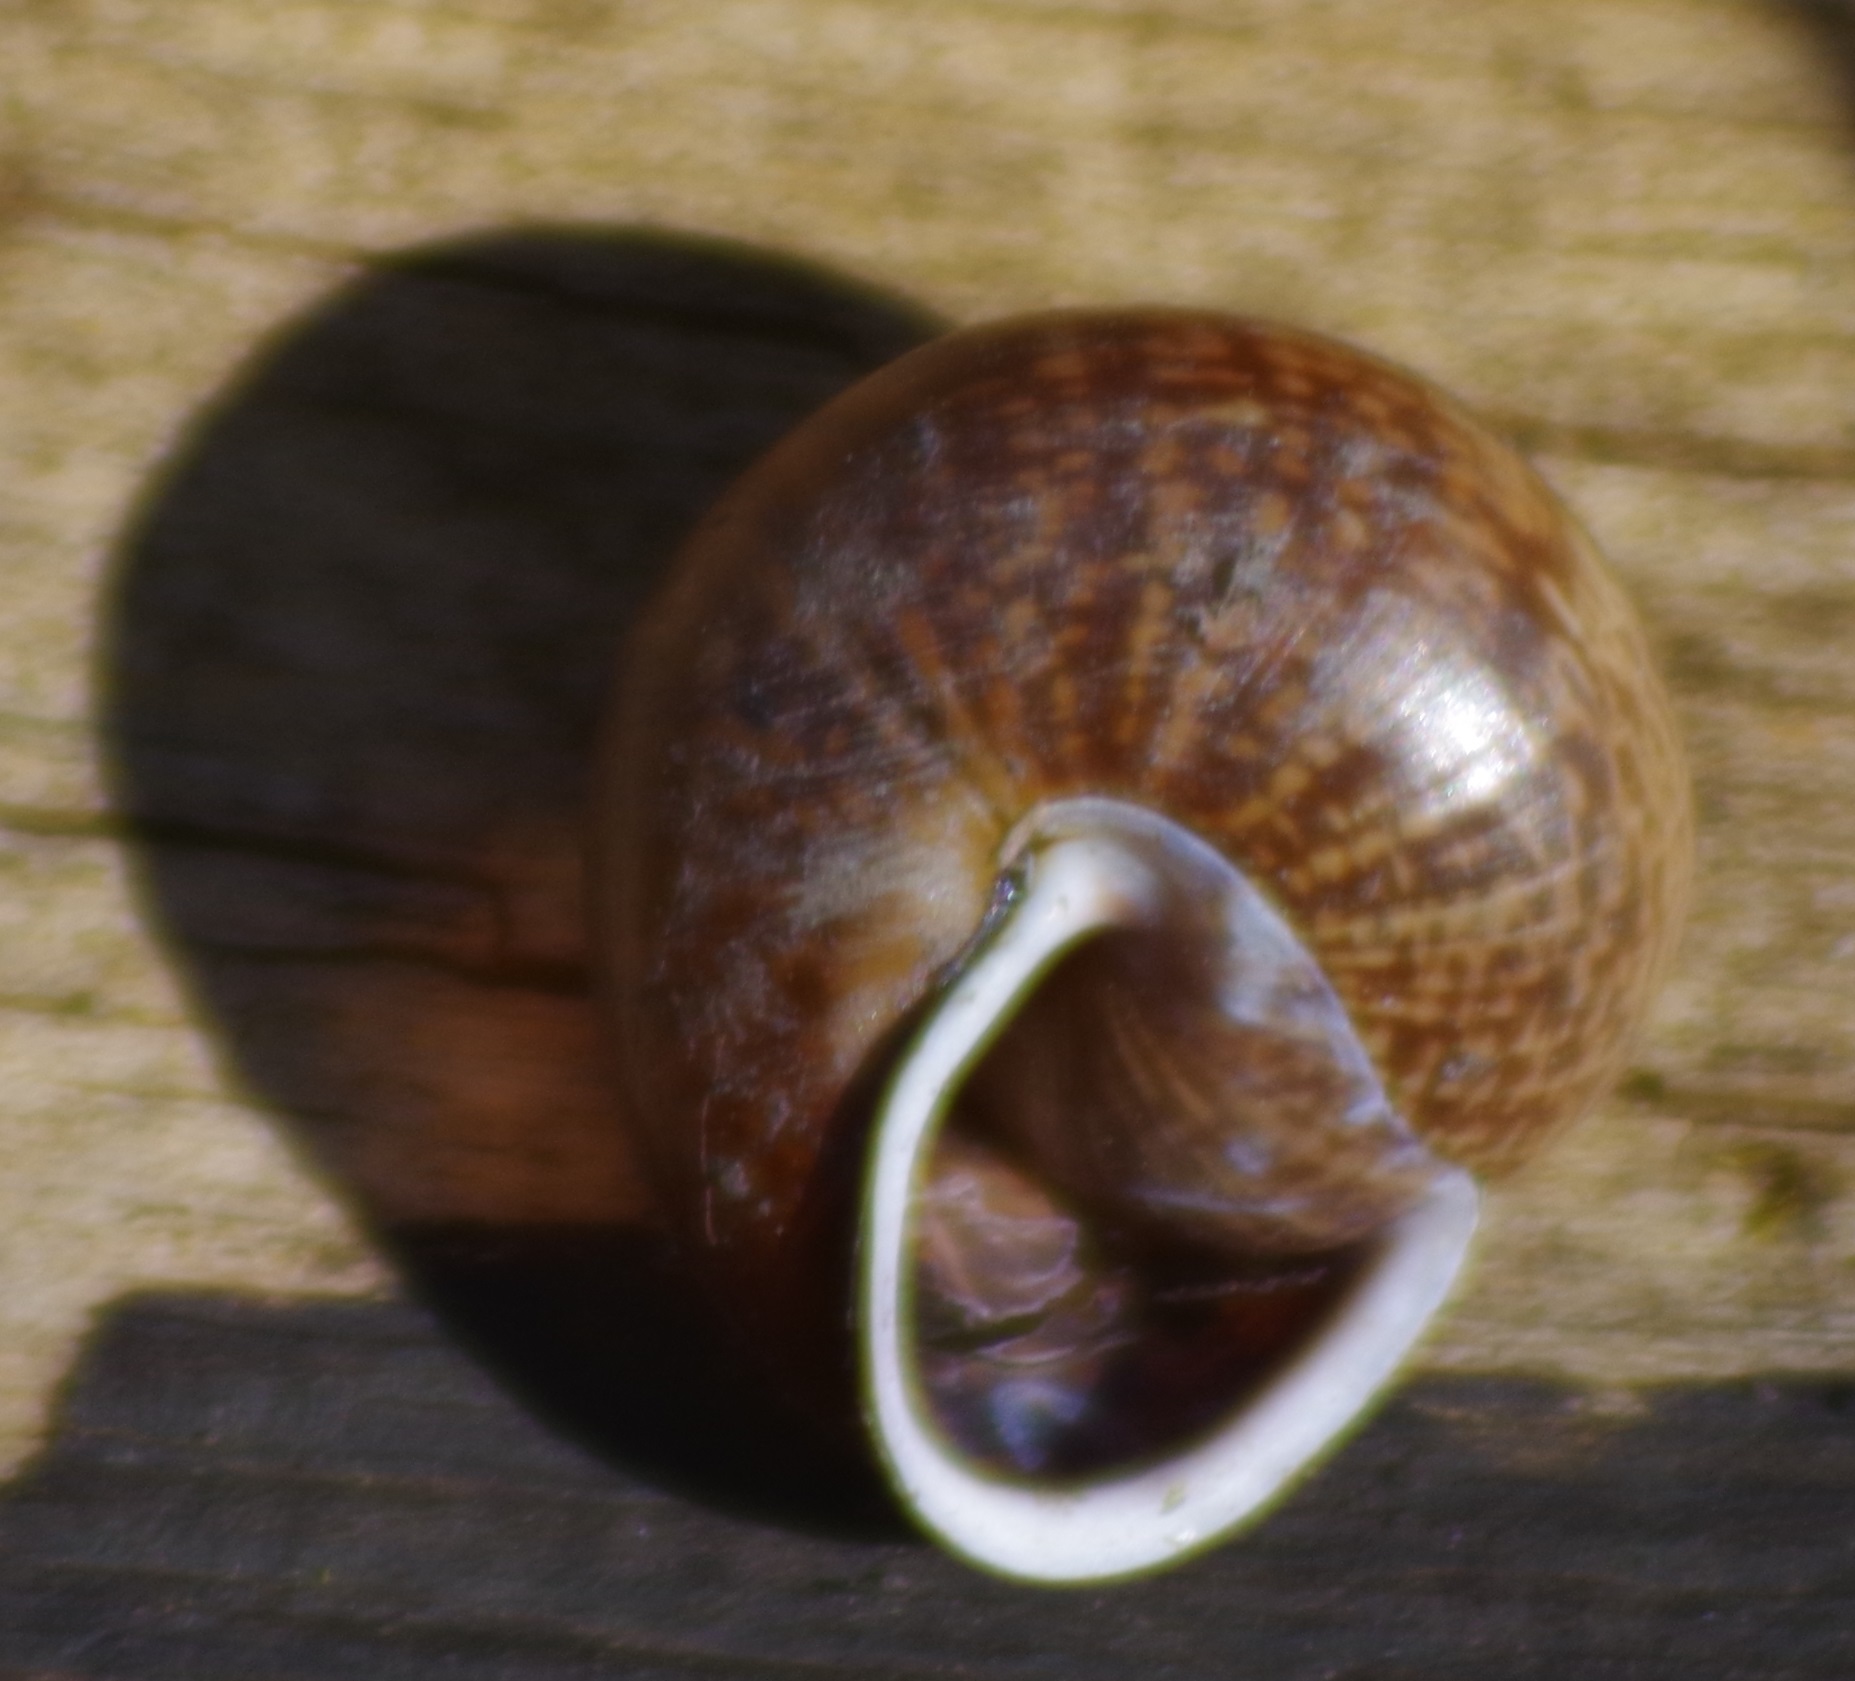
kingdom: Animalia
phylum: Mollusca
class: Gastropoda
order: Stylommatophora
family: Helicidae
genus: Arianta
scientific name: Arianta arbustorum
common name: Copse snail
